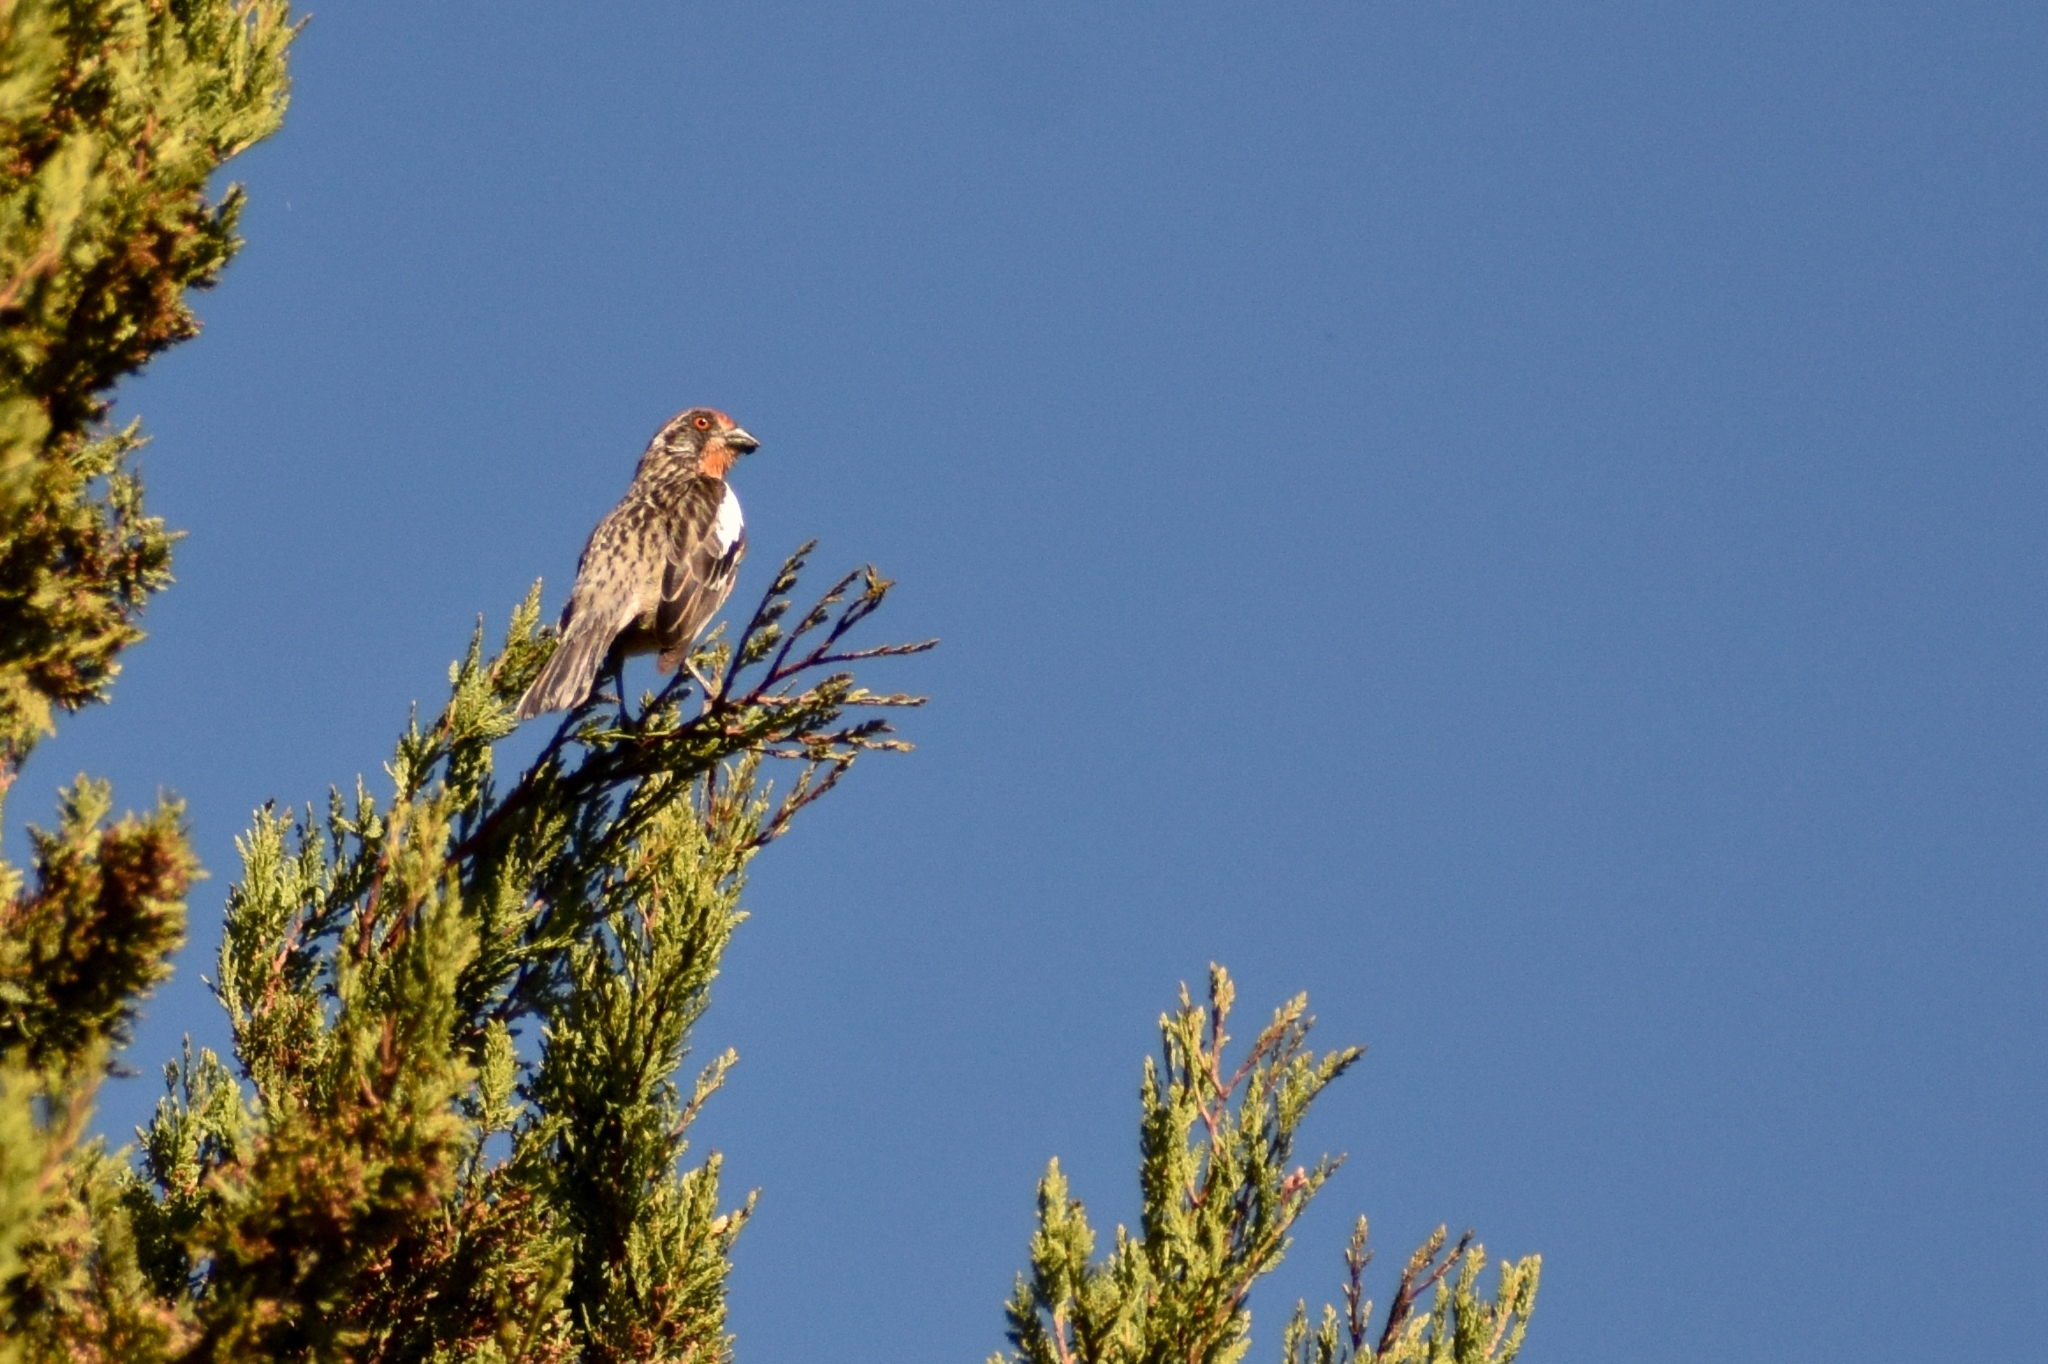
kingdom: Animalia
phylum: Chordata
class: Aves
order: Passeriformes
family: Cotingidae
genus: Phytotoma
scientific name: Phytotoma rara
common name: Rufous-tailed plantcutter
